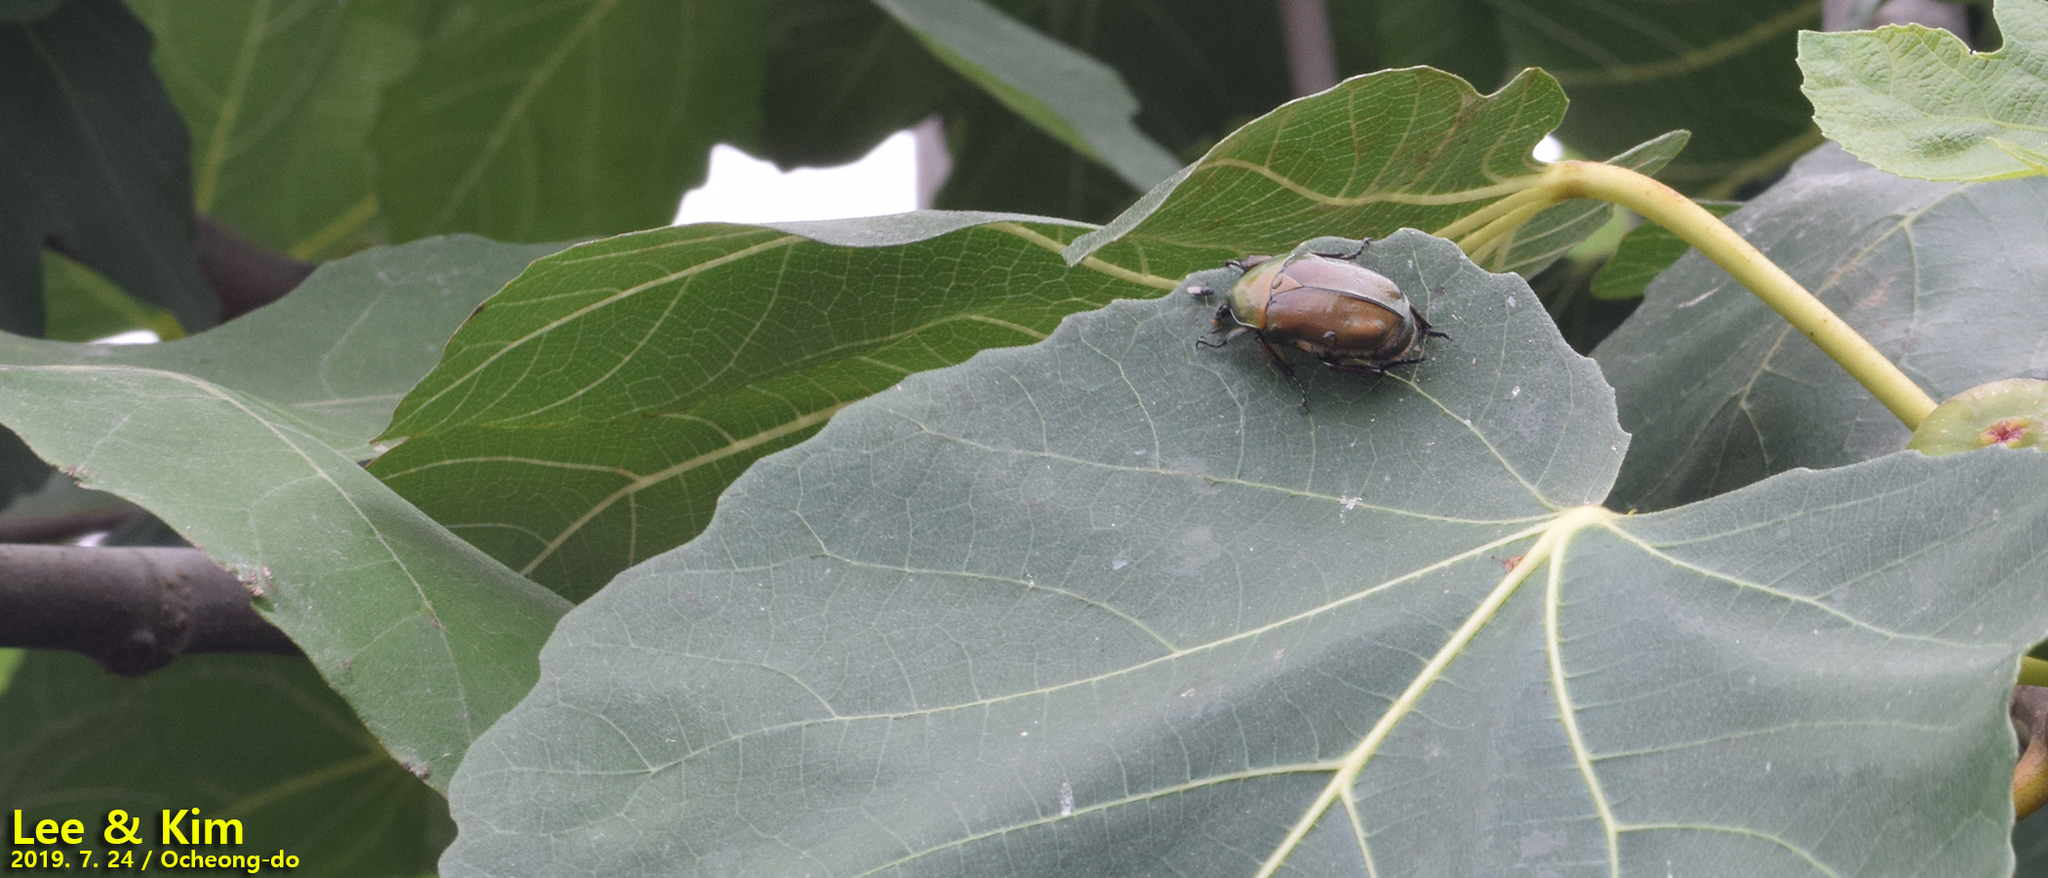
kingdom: Animalia
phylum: Arthropoda
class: Insecta
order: Coleoptera
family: Scarabaeidae
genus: Pseudotorynorrhina
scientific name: Pseudotorynorrhina japonica
